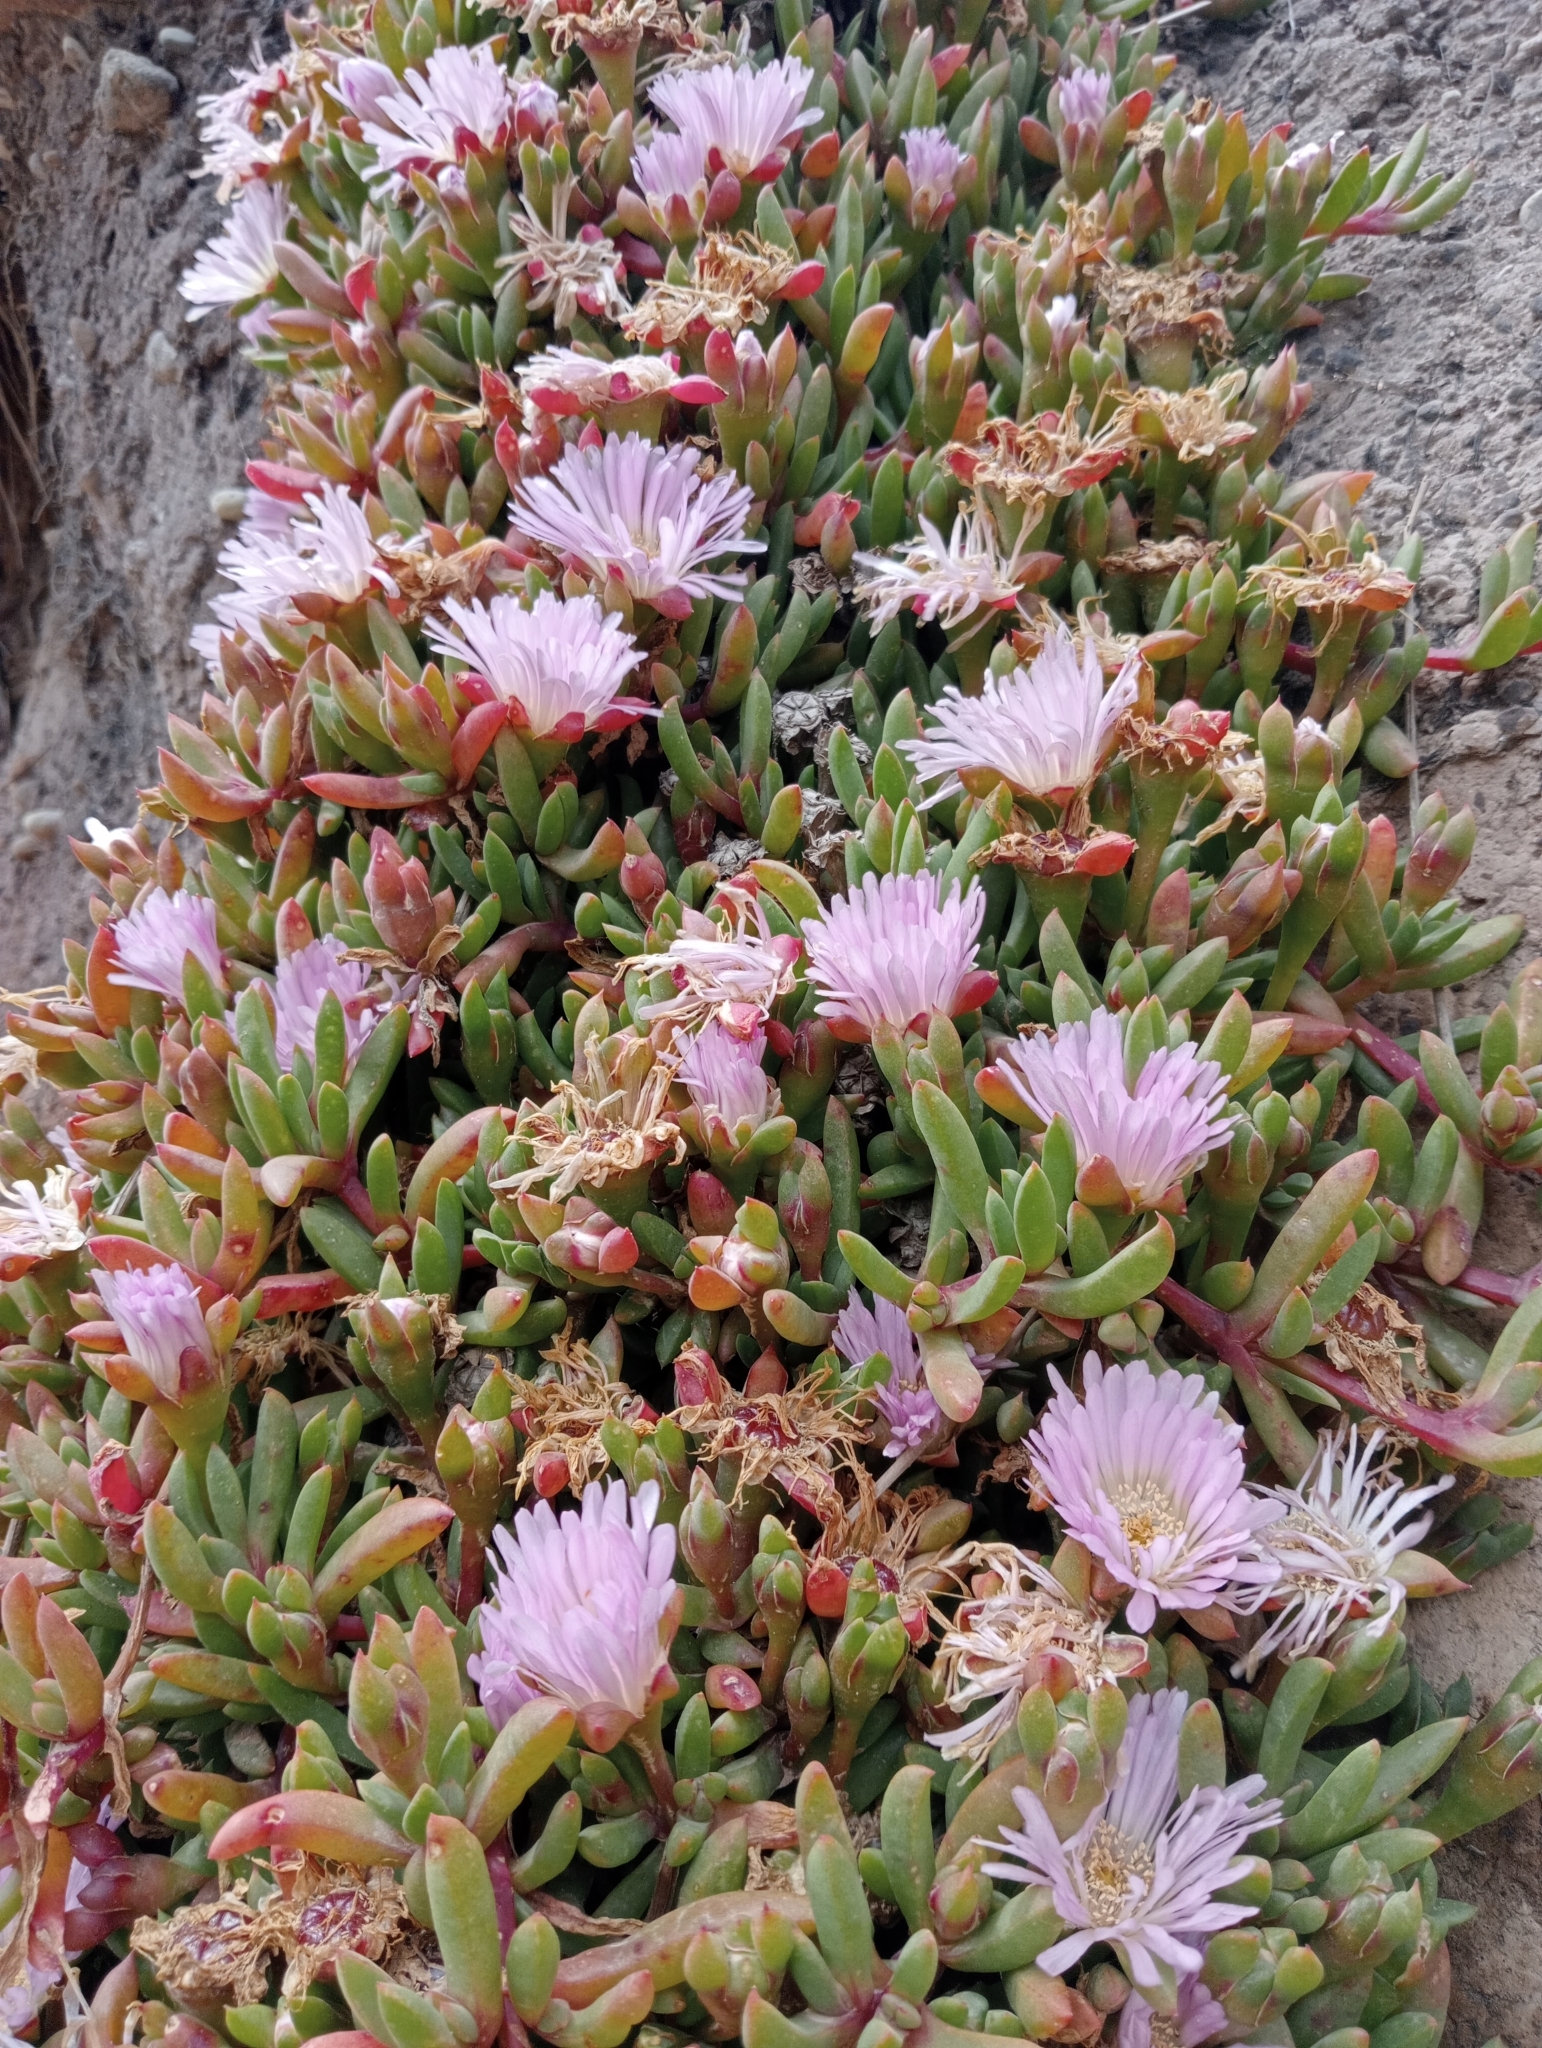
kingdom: Plantae
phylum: Tracheophyta
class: Magnoliopsida
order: Caryophyllales
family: Aizoaceae
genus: Disphyma
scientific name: Disphyma australe
